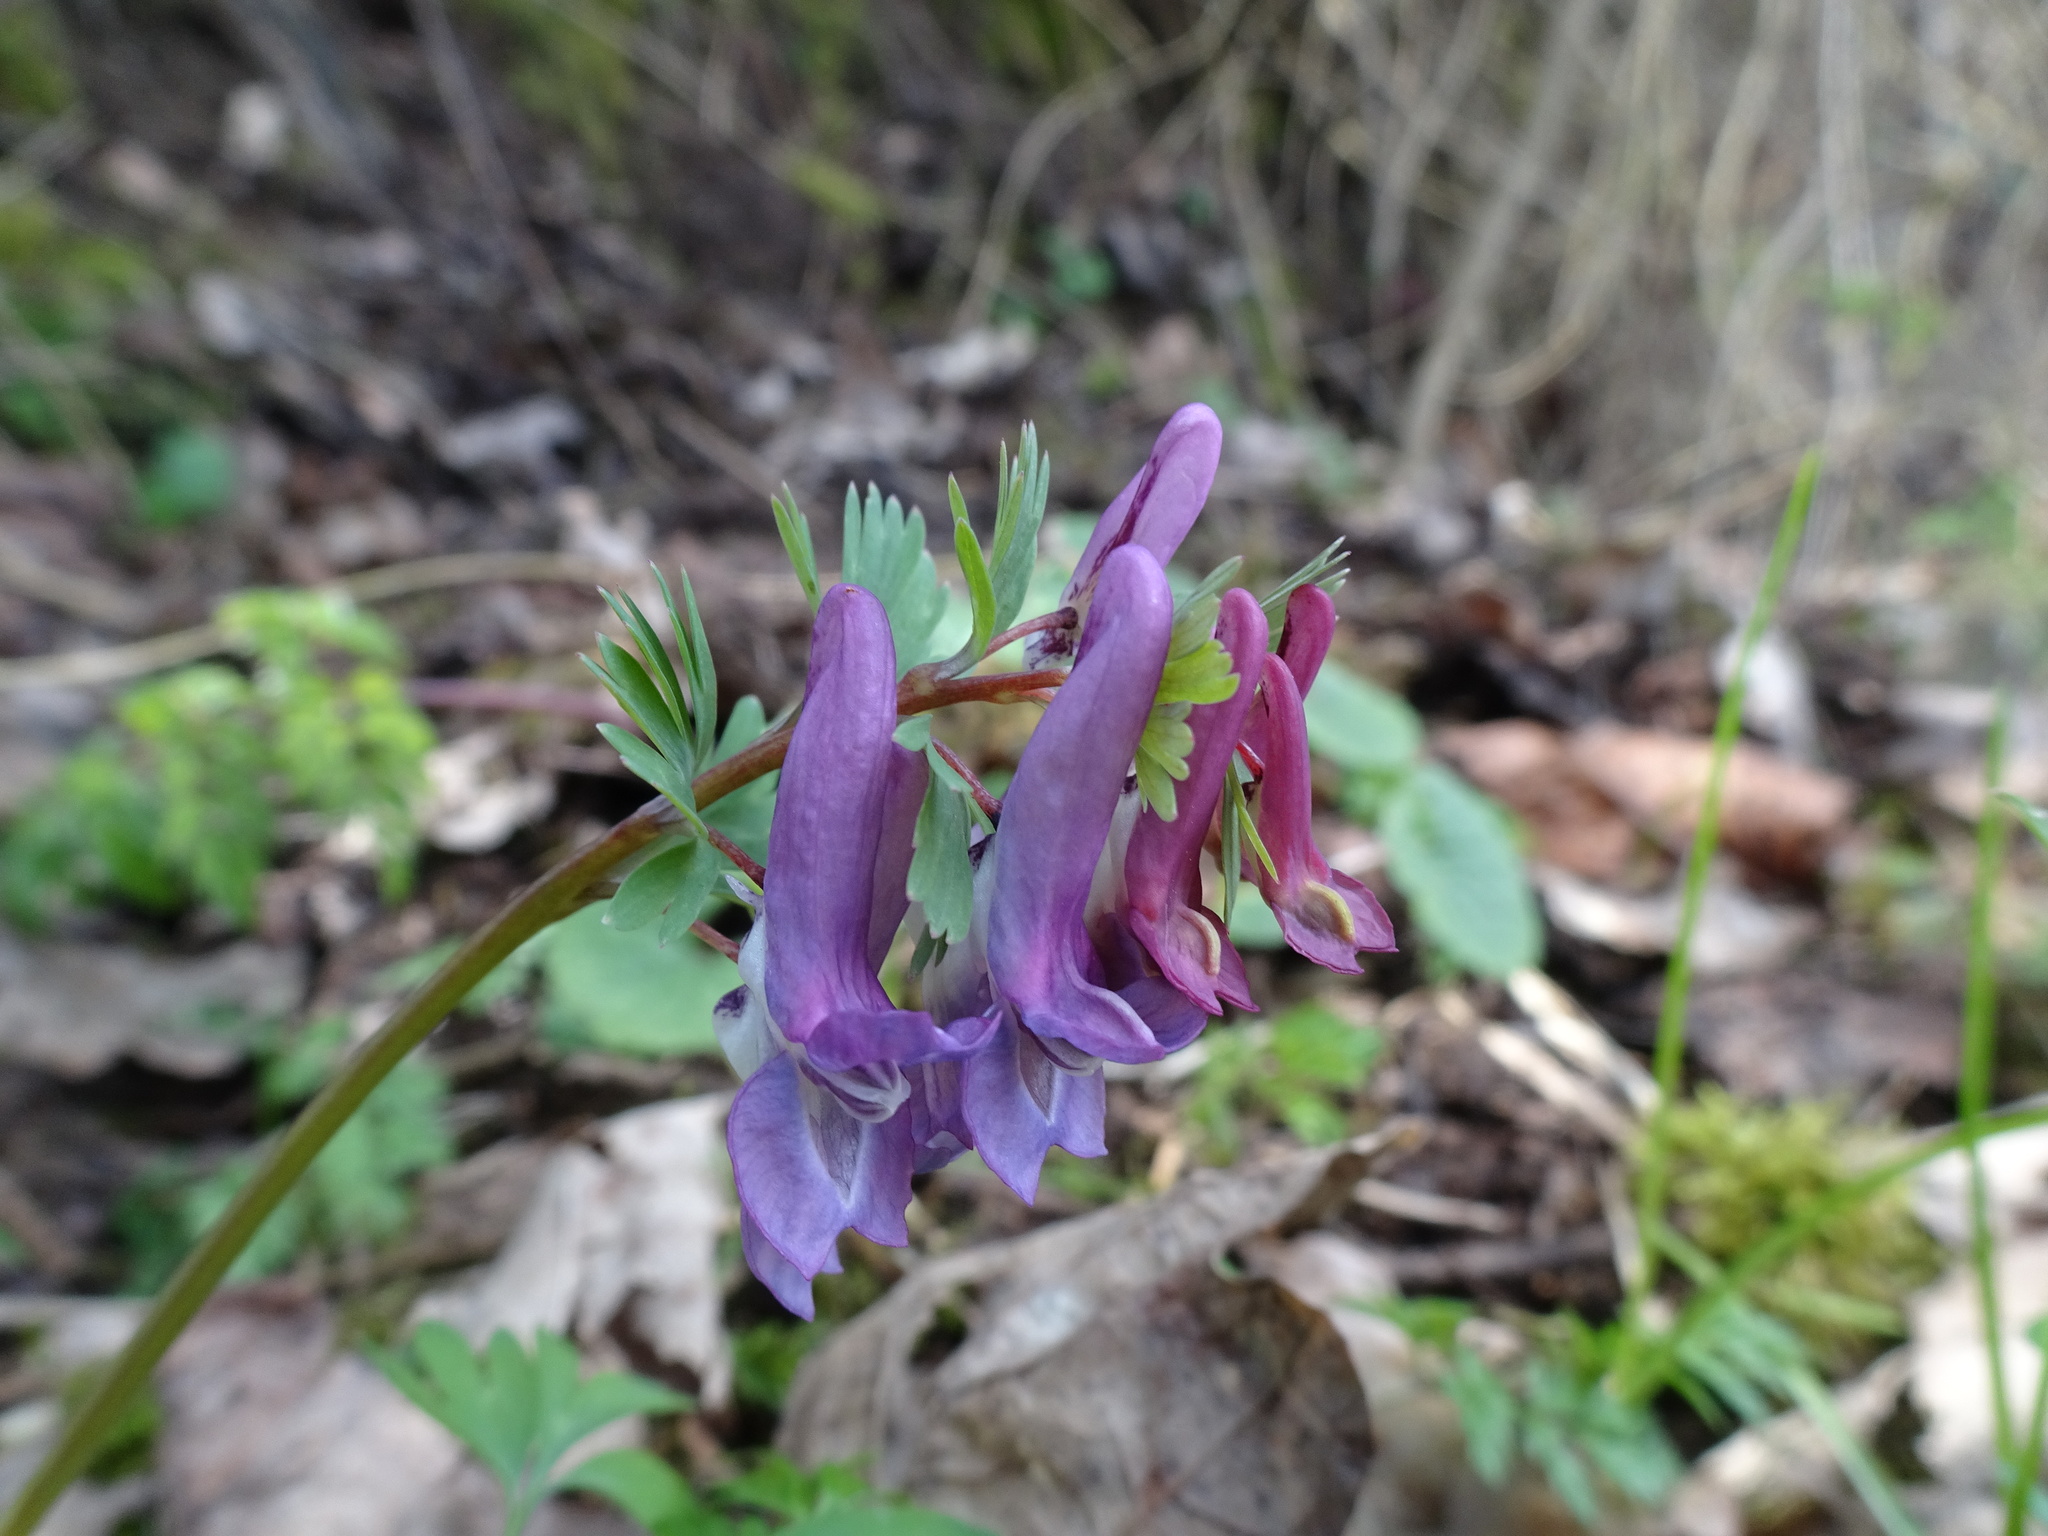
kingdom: Plantae
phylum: Tracheophyta
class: Magnoliopsida
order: Ranunculales
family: Papaveraceae
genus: Corydalis
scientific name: Corydalis solida
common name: Bird-in-a-bush
